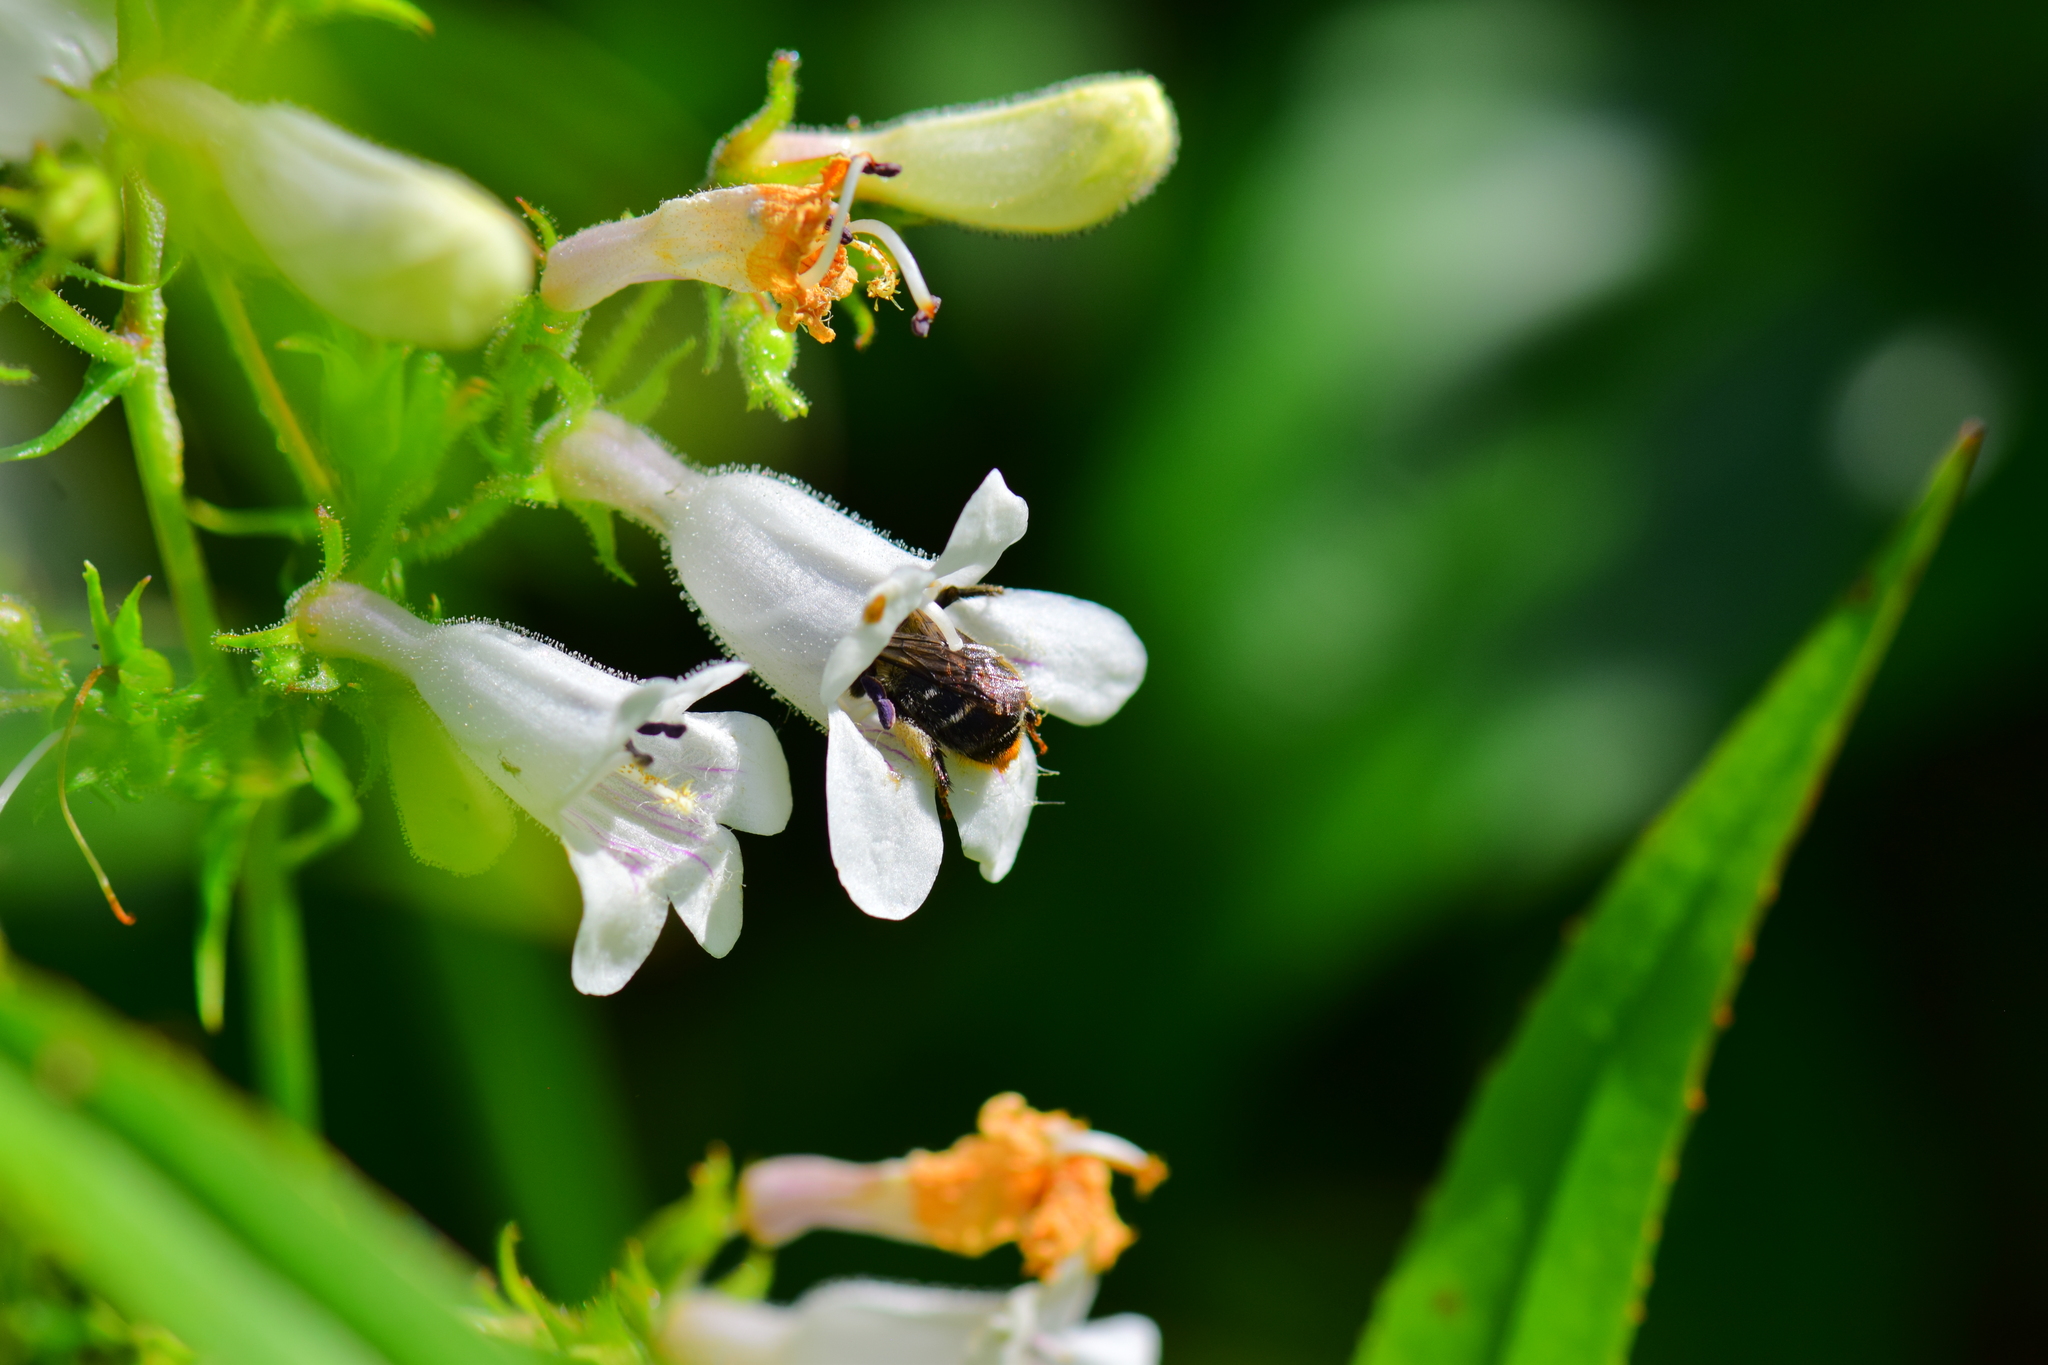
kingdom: Animalia
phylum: Arthropoda
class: Insecta
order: Hymenoptera
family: Apidae
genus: Anthophora
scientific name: Anthophora terminalis
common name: Orange-tipped wood-digger bee
